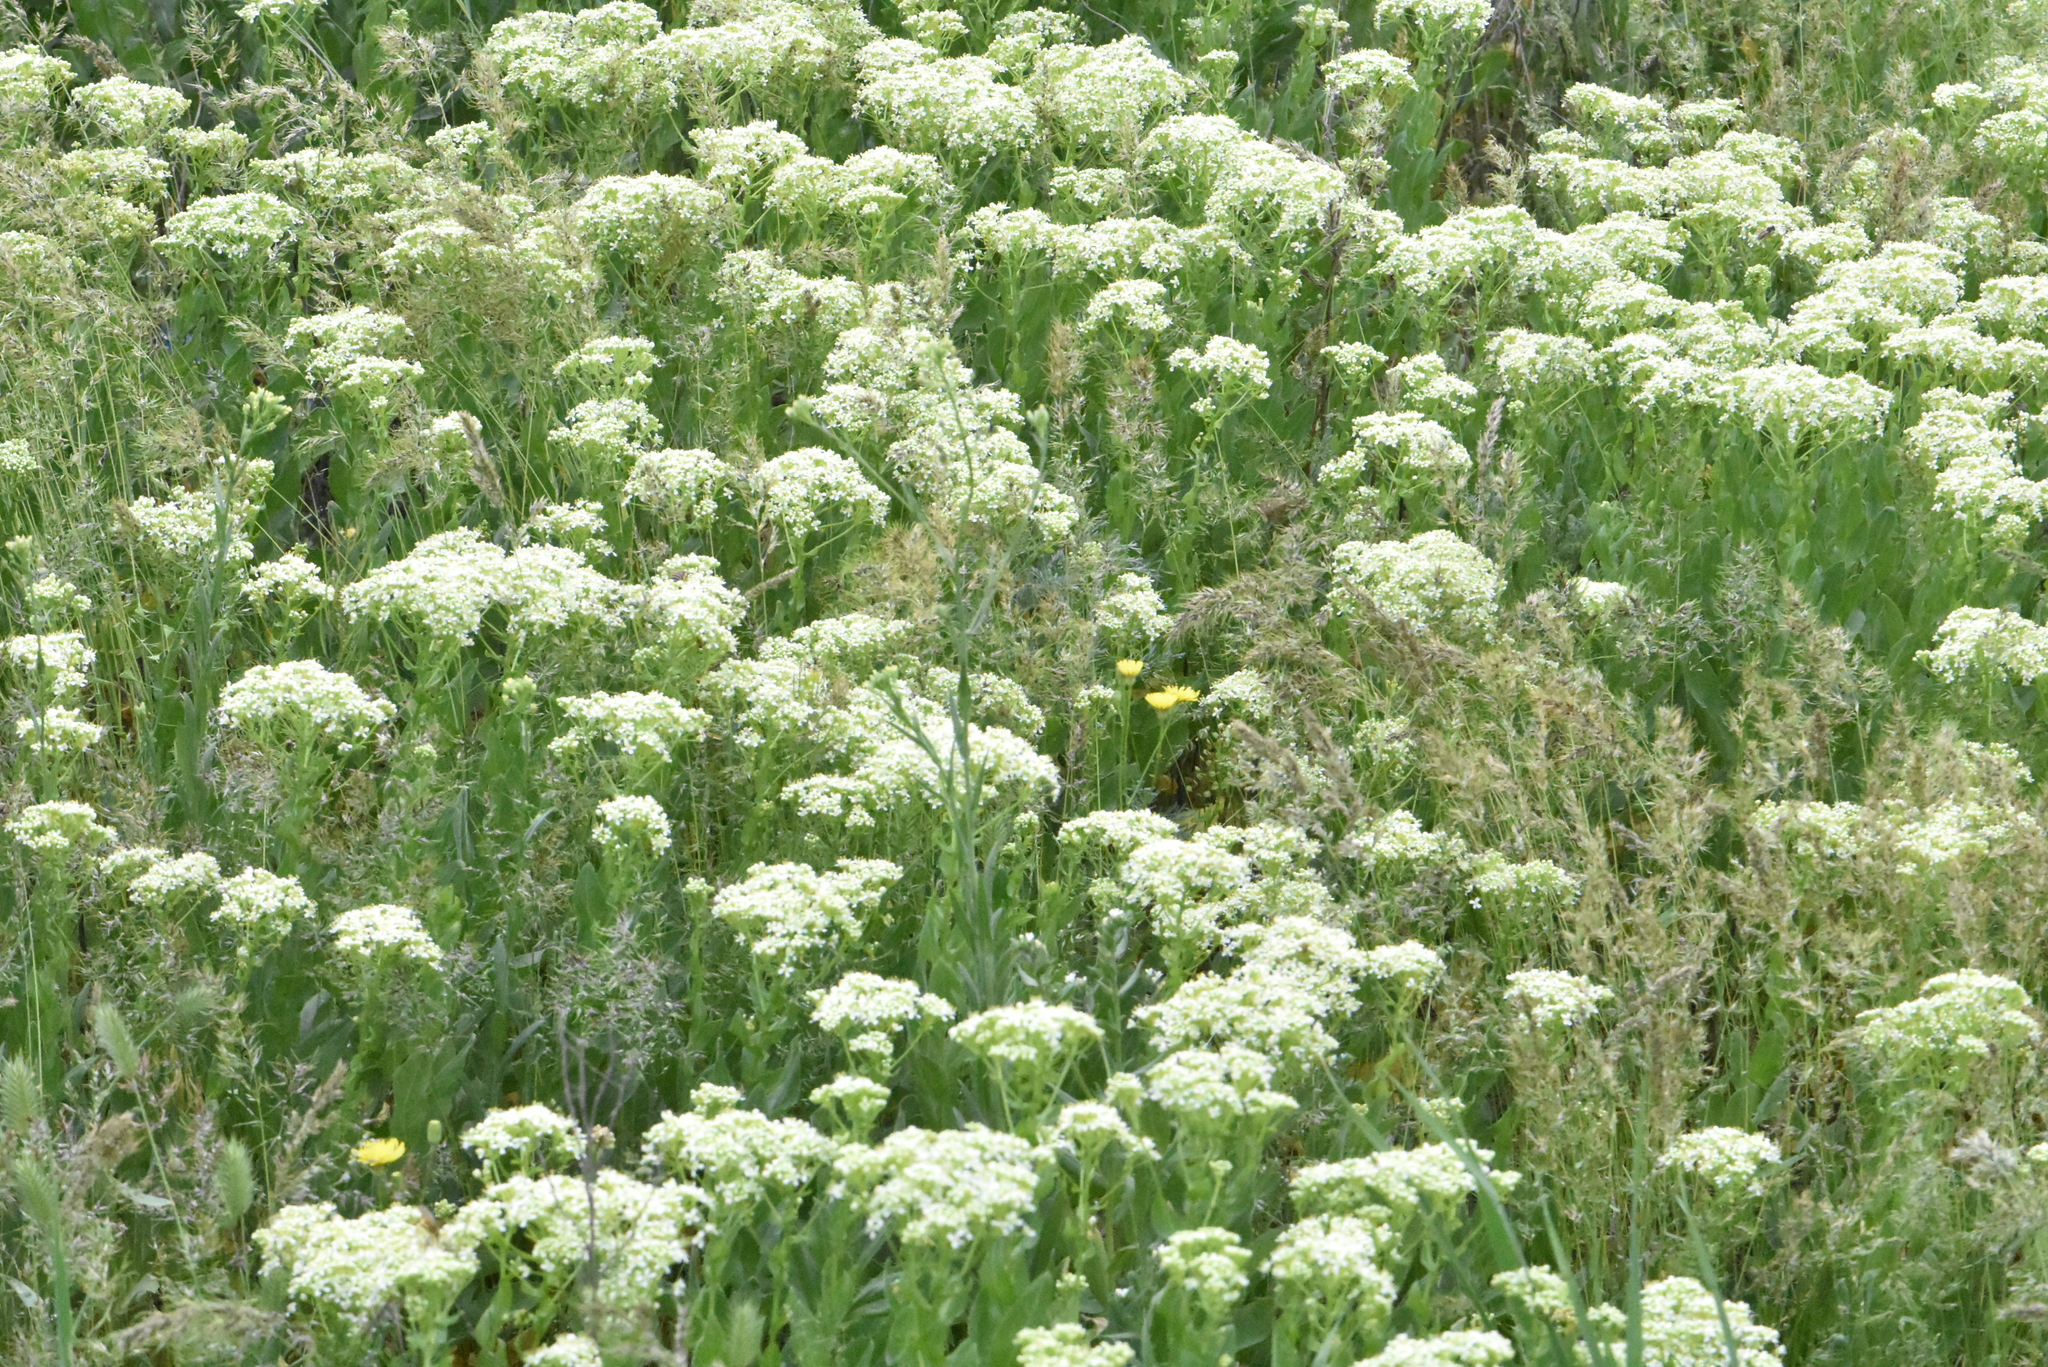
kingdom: Plantae
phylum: Tracheophyta
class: Magnoliopsida
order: Brassicales
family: Brassicaceae
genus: Lepidium
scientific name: Lepidium draba
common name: Hoary cress
